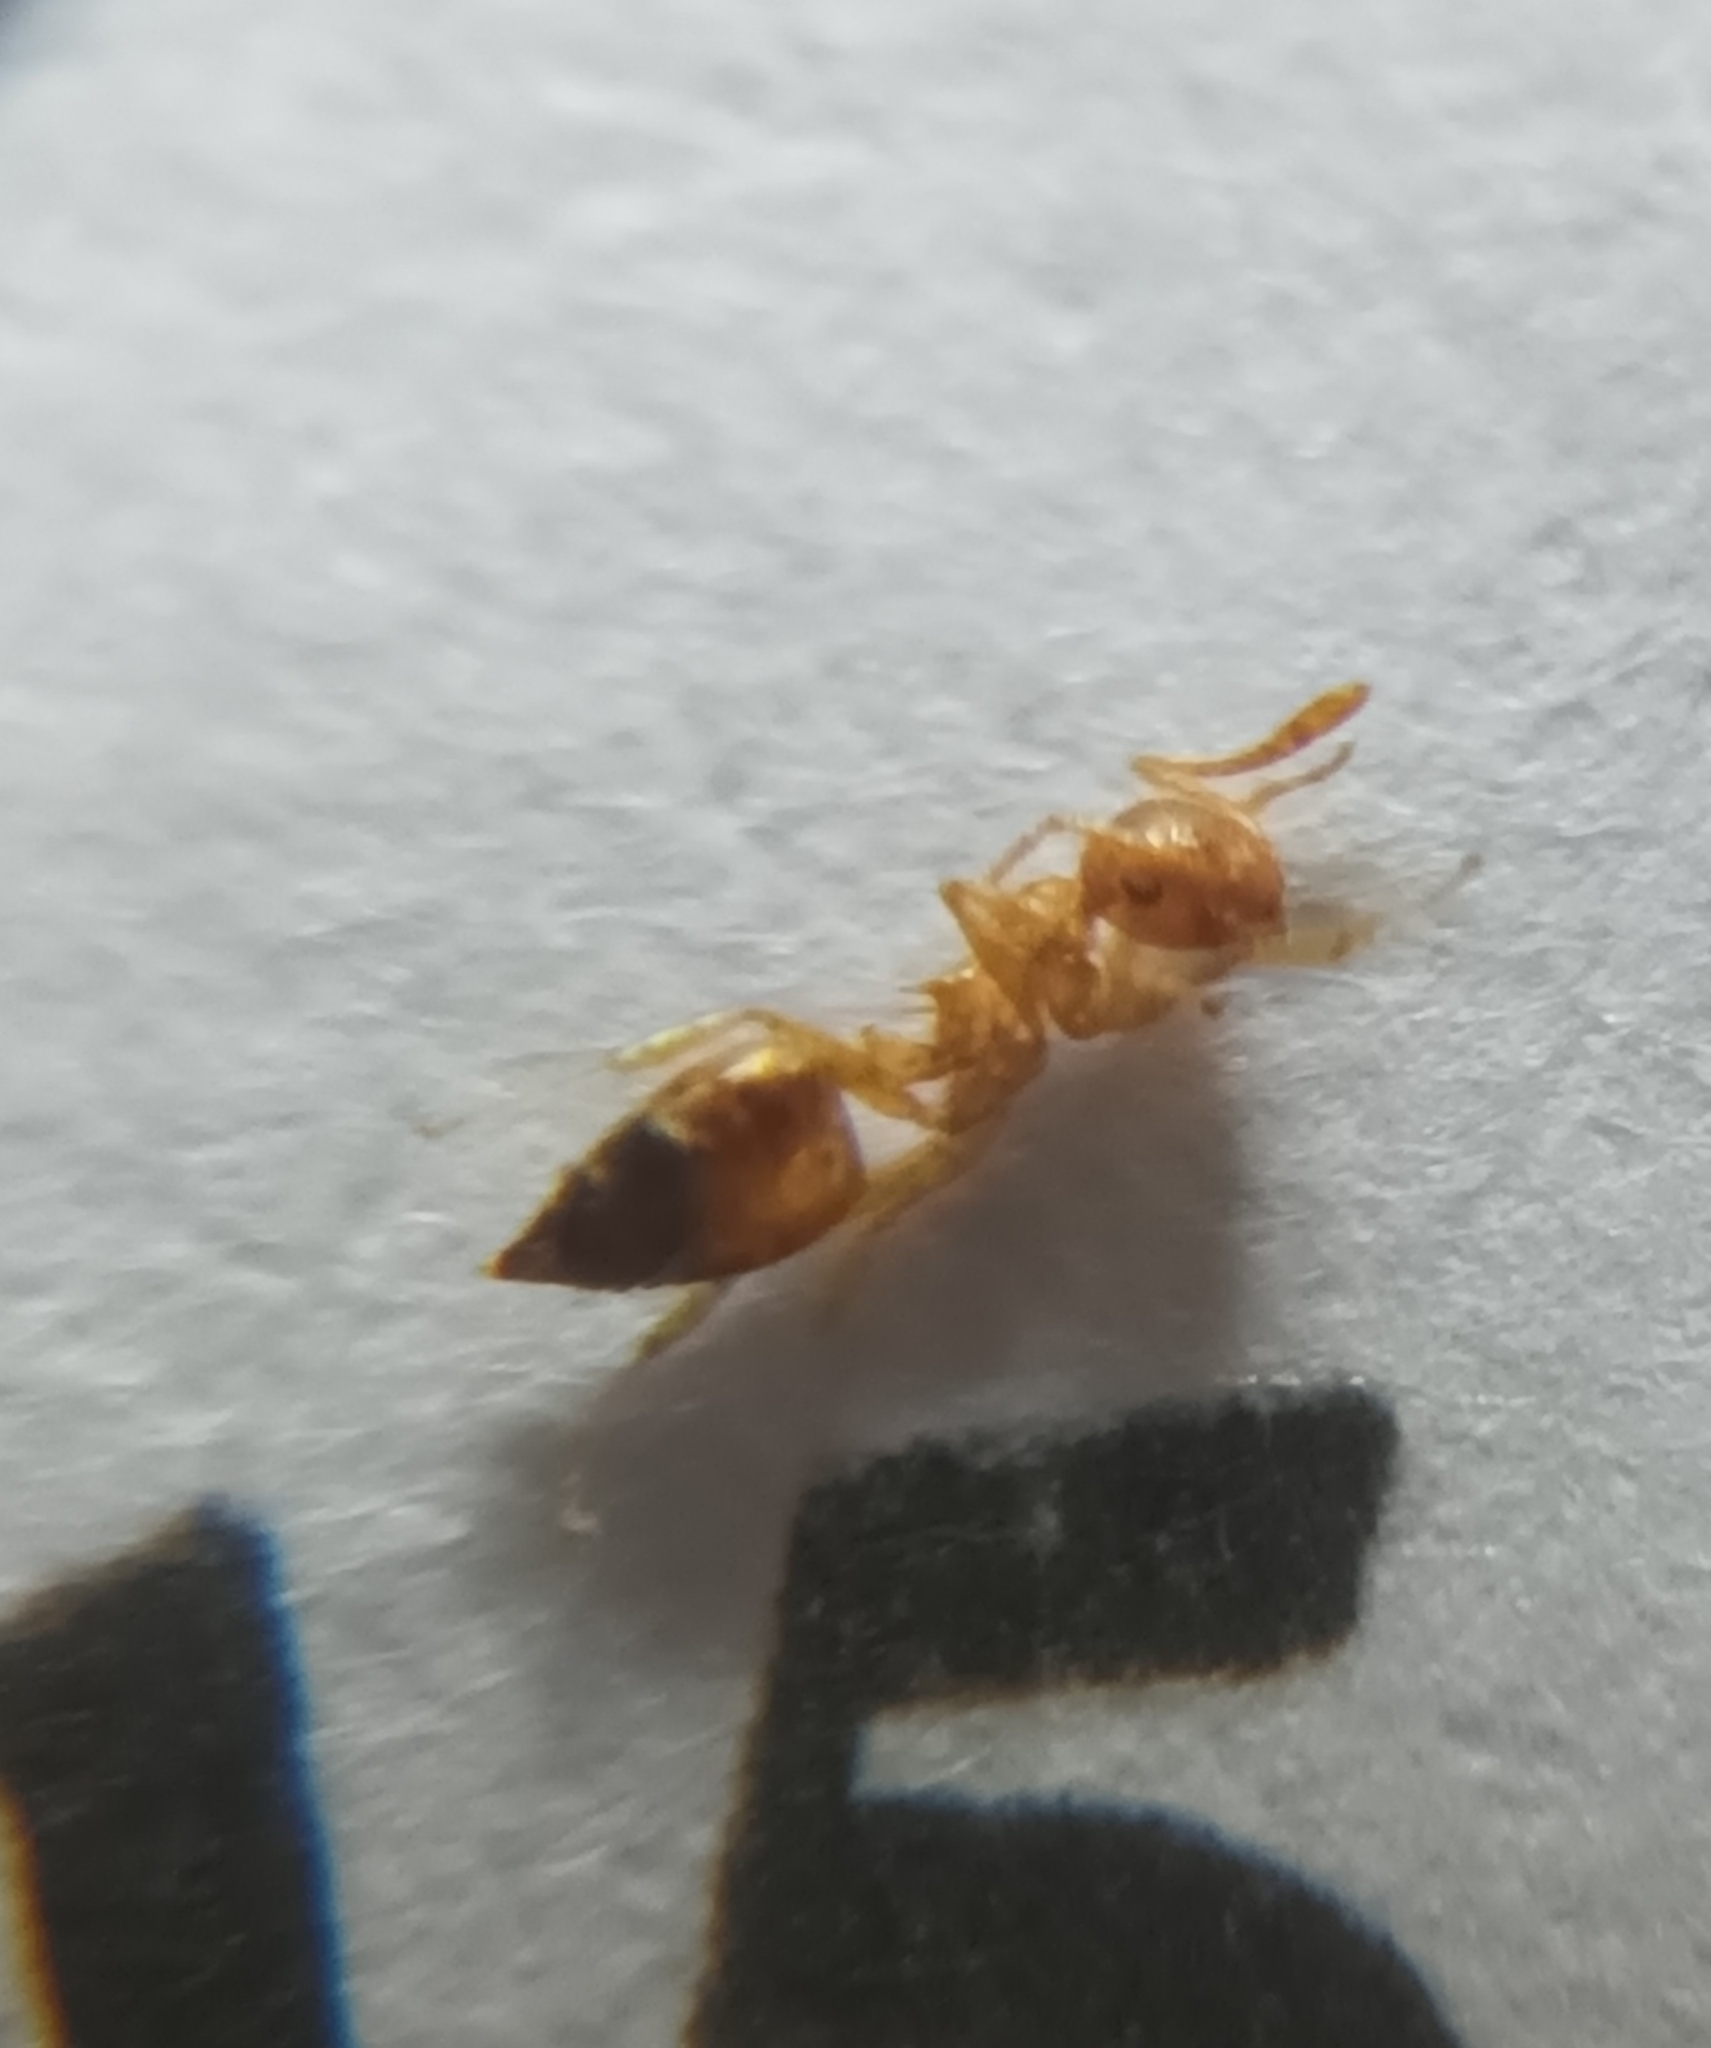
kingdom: Animalia
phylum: Arthropoda
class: Insecta
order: Hymenoptera
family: Formicidae
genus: Crematogaster
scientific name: Crematogaster biroi
